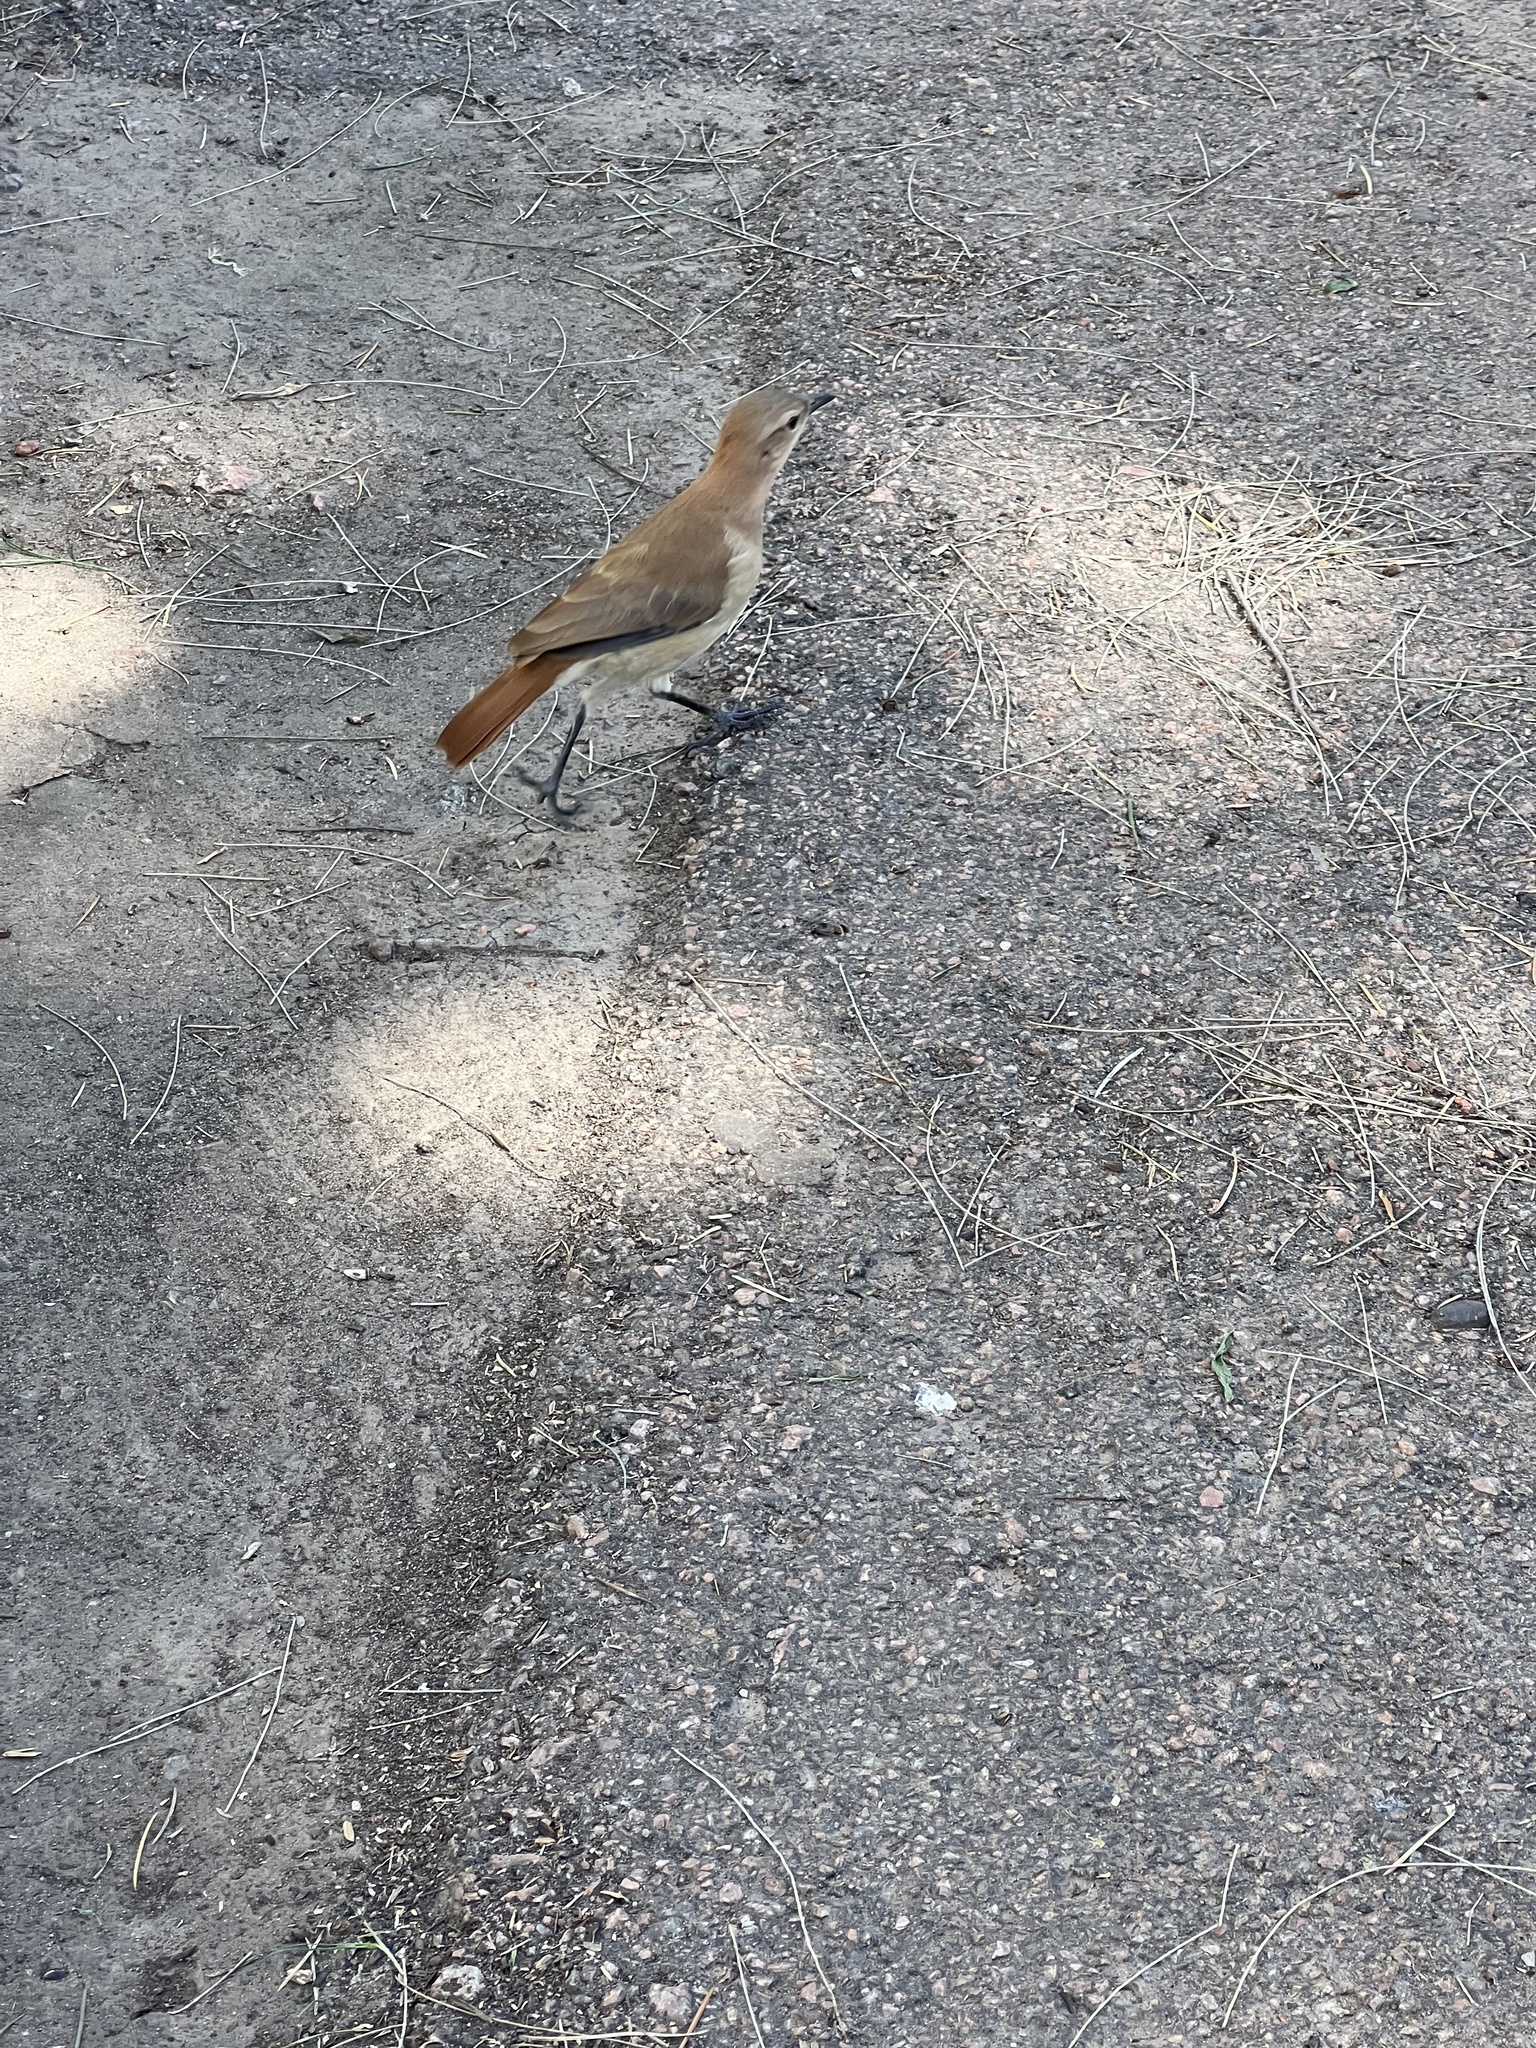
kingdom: Animalia
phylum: Chordata
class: Aves
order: Passeriformes
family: Furnariidae
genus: Furnarius
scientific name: Furnarius rufus
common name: Rufous hornero
